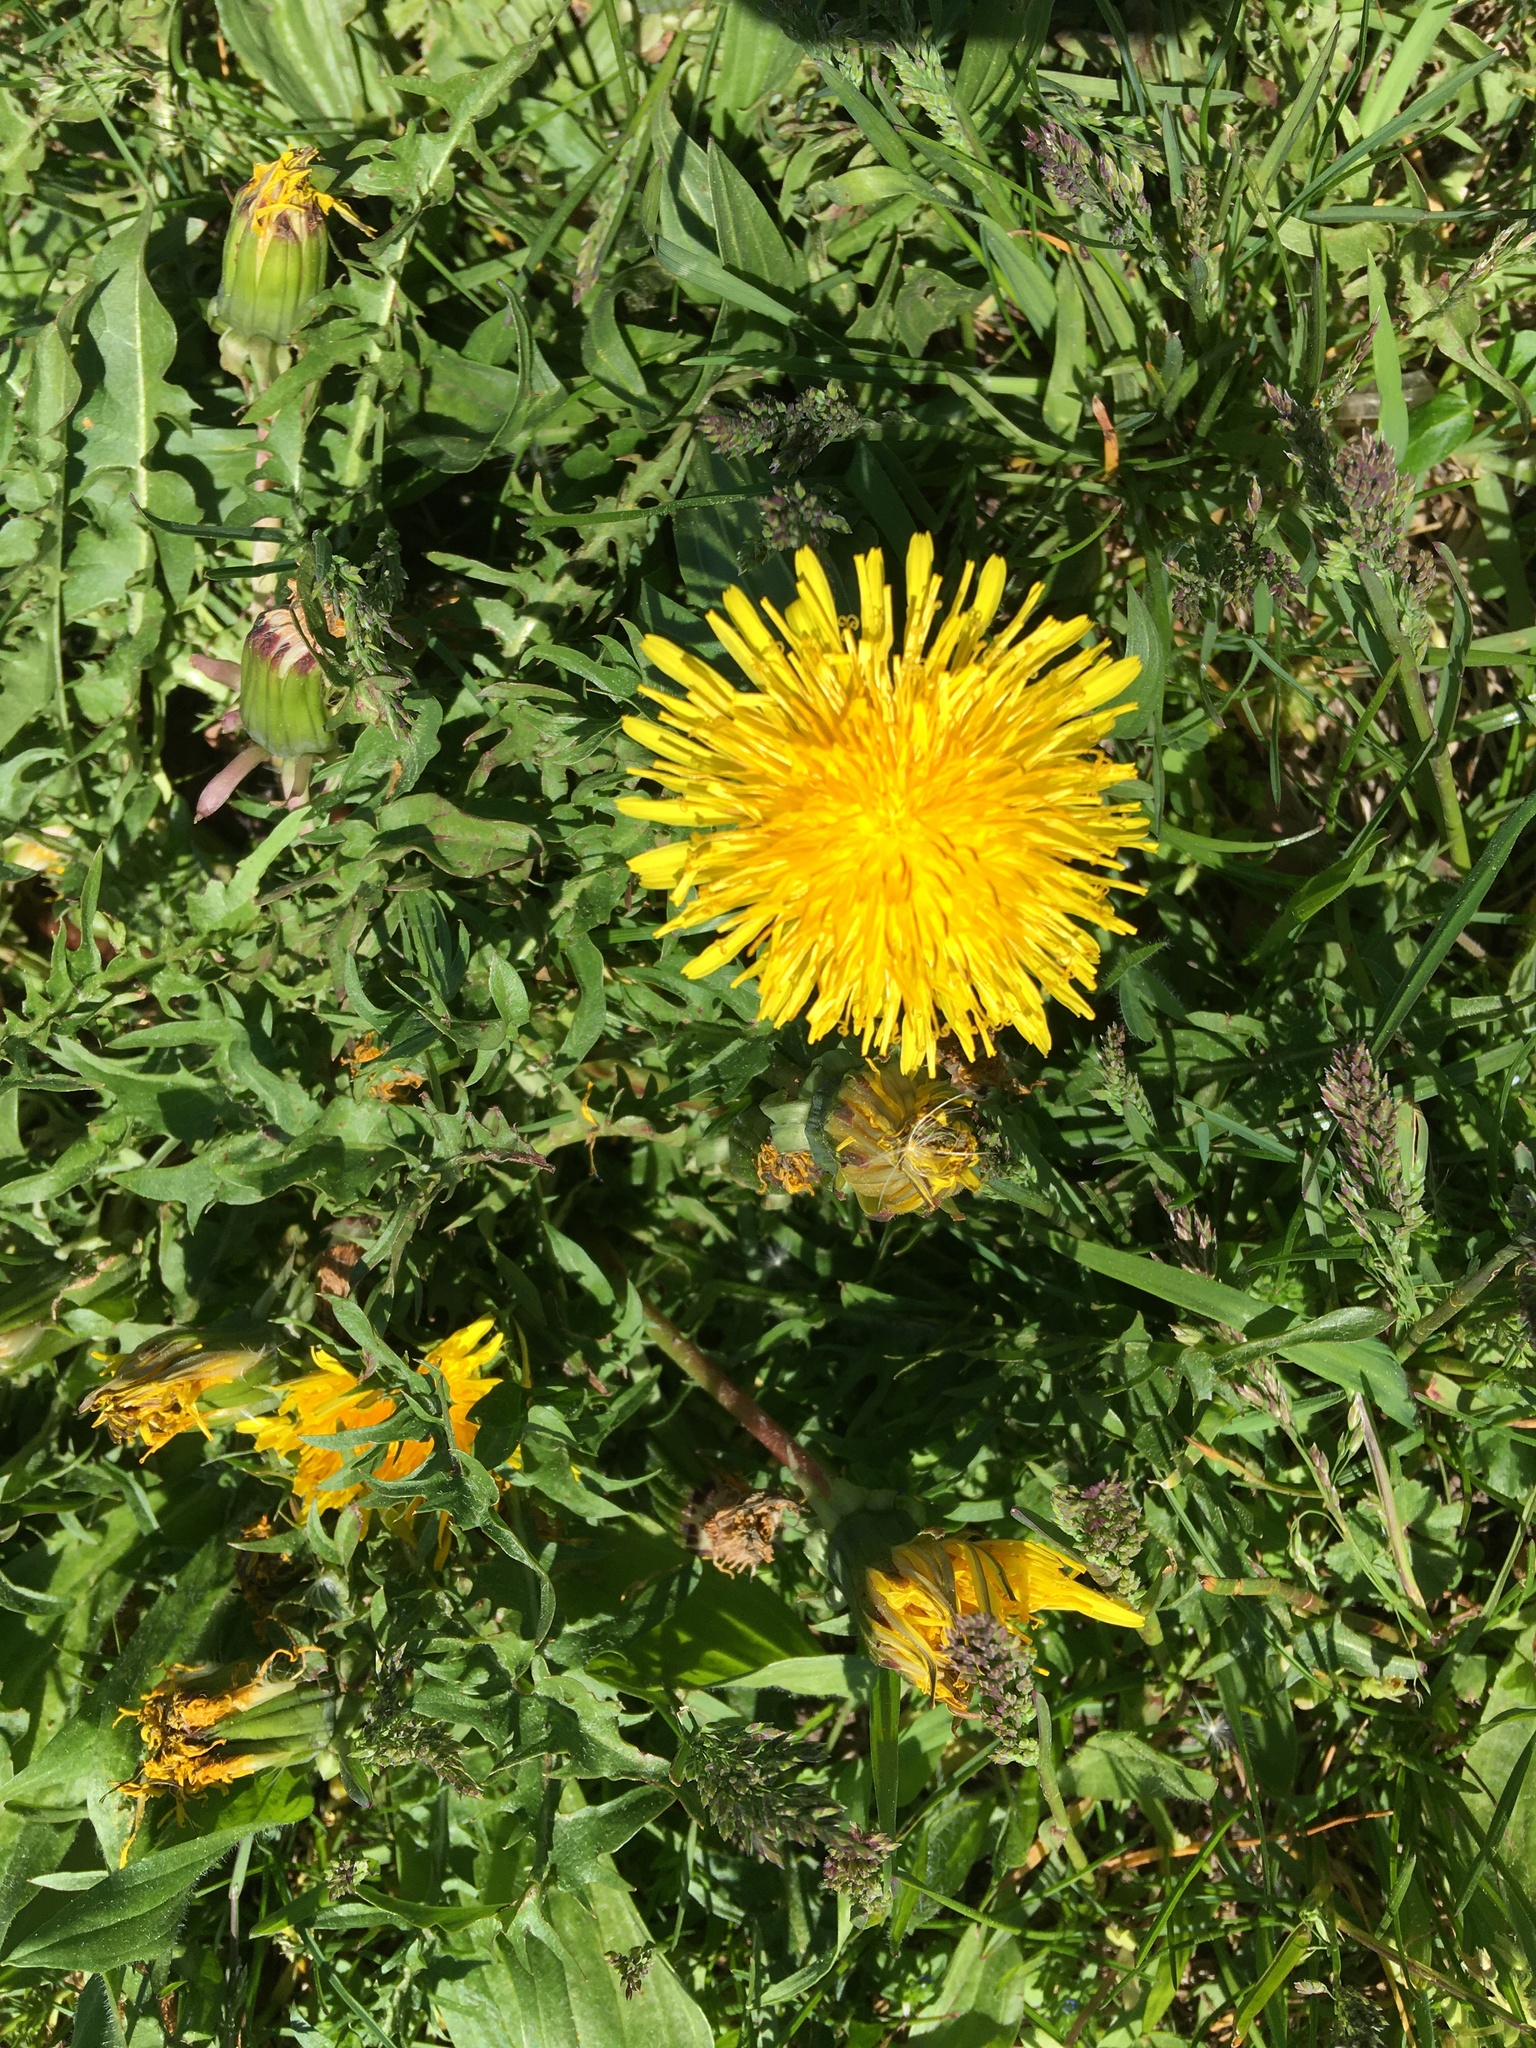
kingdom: Plantae
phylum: Tracheophyta
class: Magnoliopsida
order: Asterales
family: Asteraceae
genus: Taraxacum
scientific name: Taraxacum
